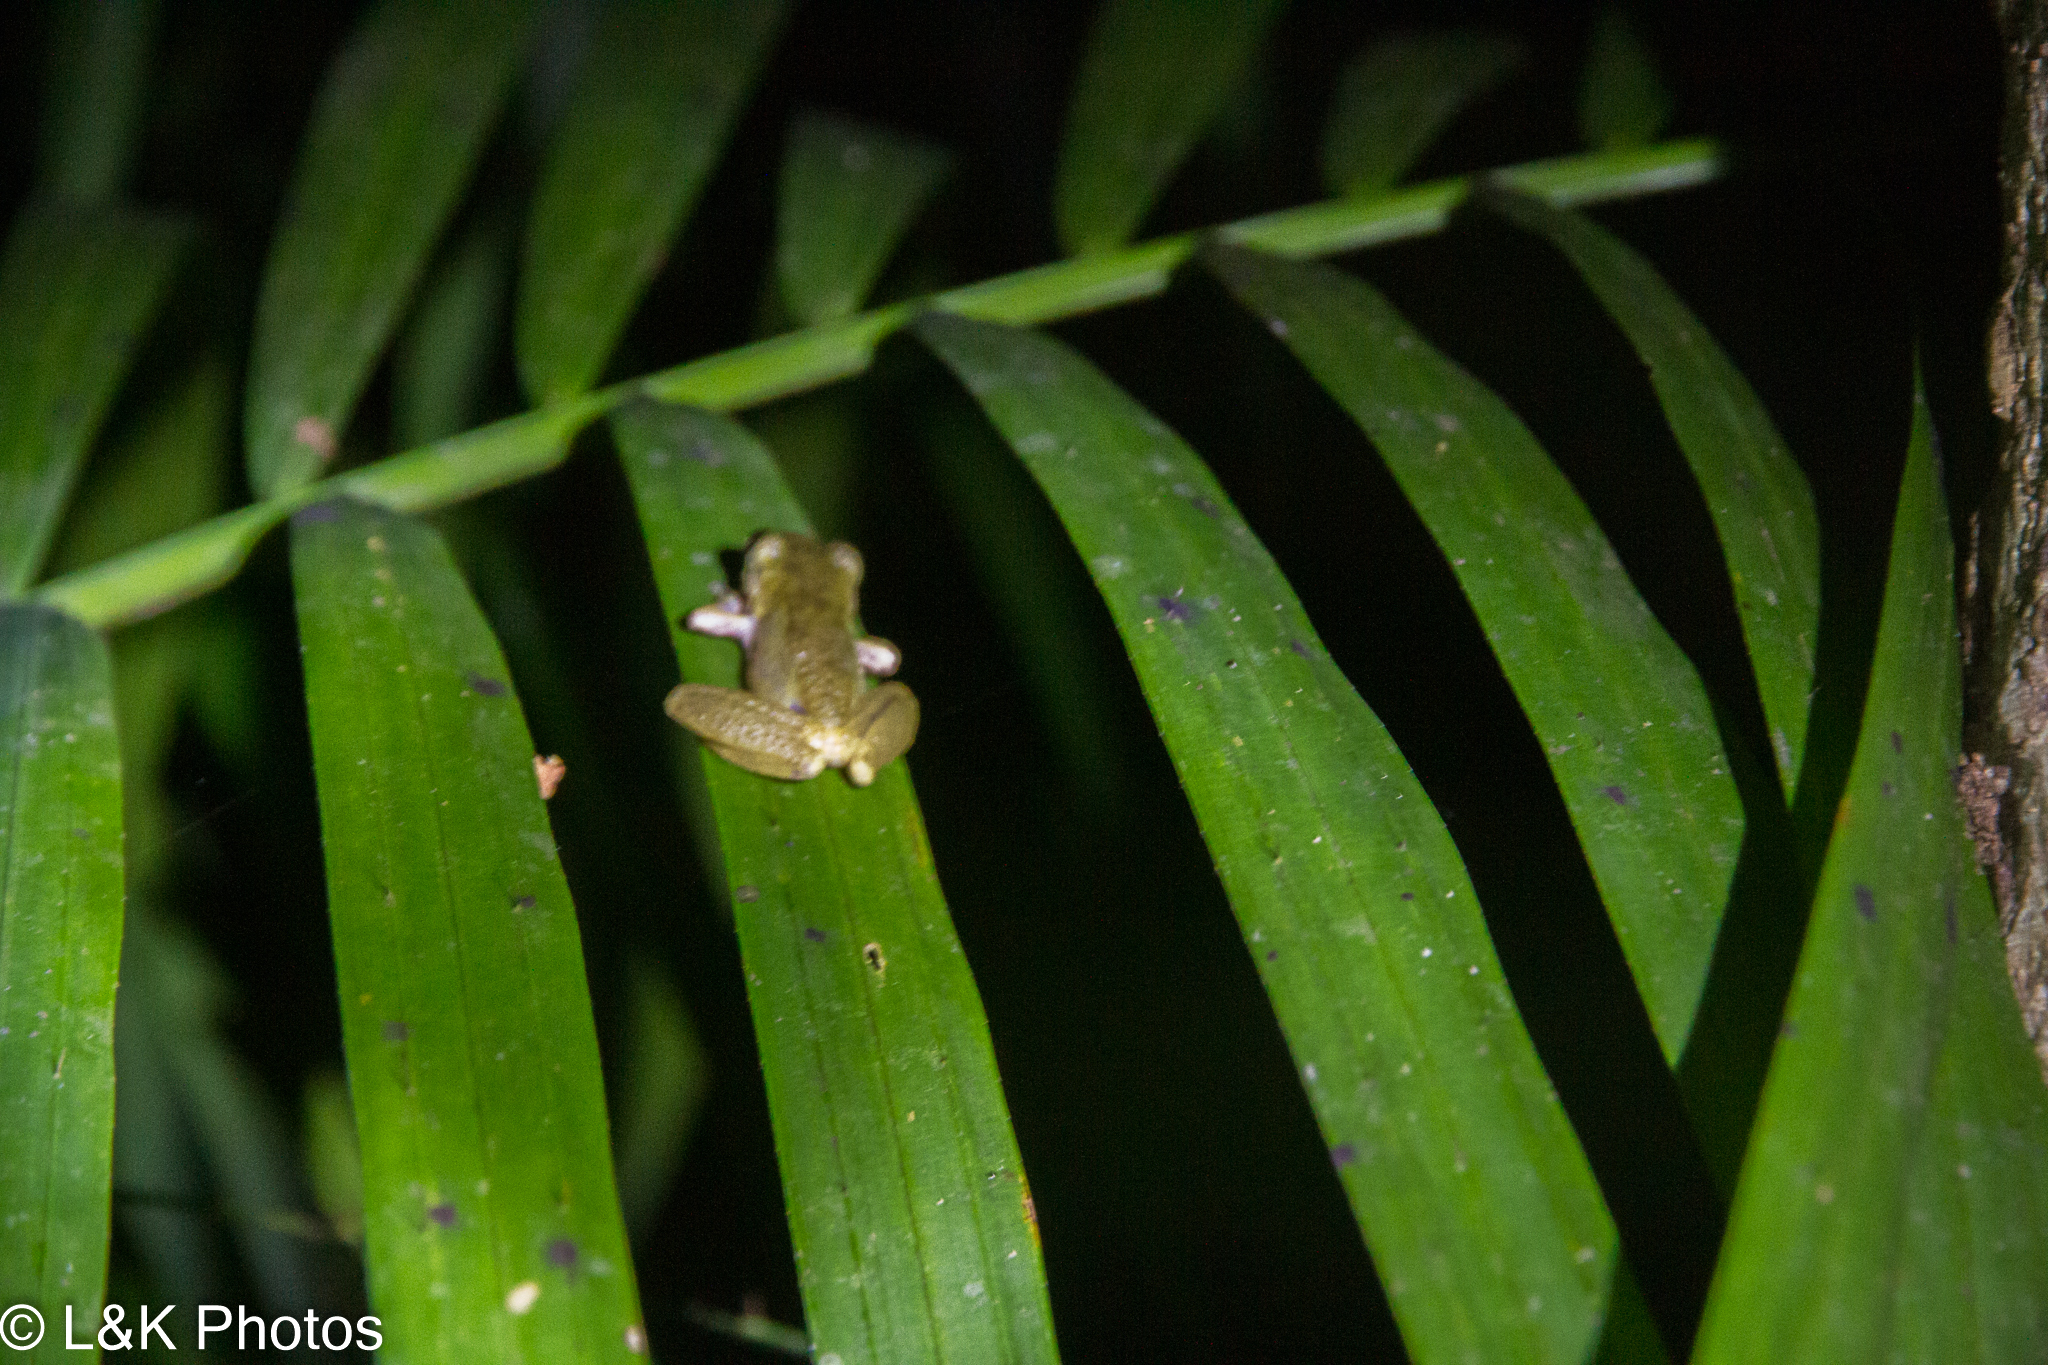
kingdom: Animalia
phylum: Chordata
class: Amphibia
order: Anura
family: Pelodryadidae
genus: Ranoidea
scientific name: Ranoidea rheocola
